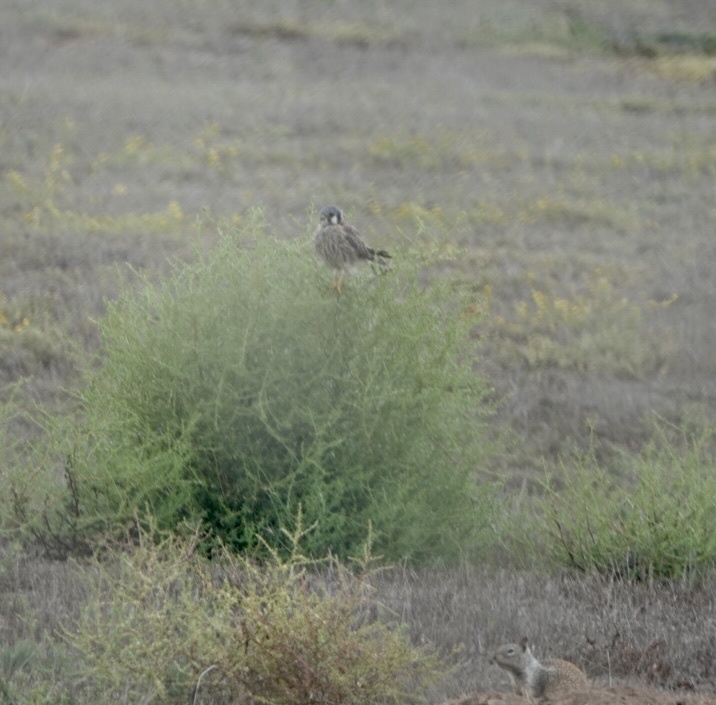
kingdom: Animalia
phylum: Chordata
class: Aves
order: Falconiformes
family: Falconidae
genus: Falco
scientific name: Falco sparverius
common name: American kestrel
